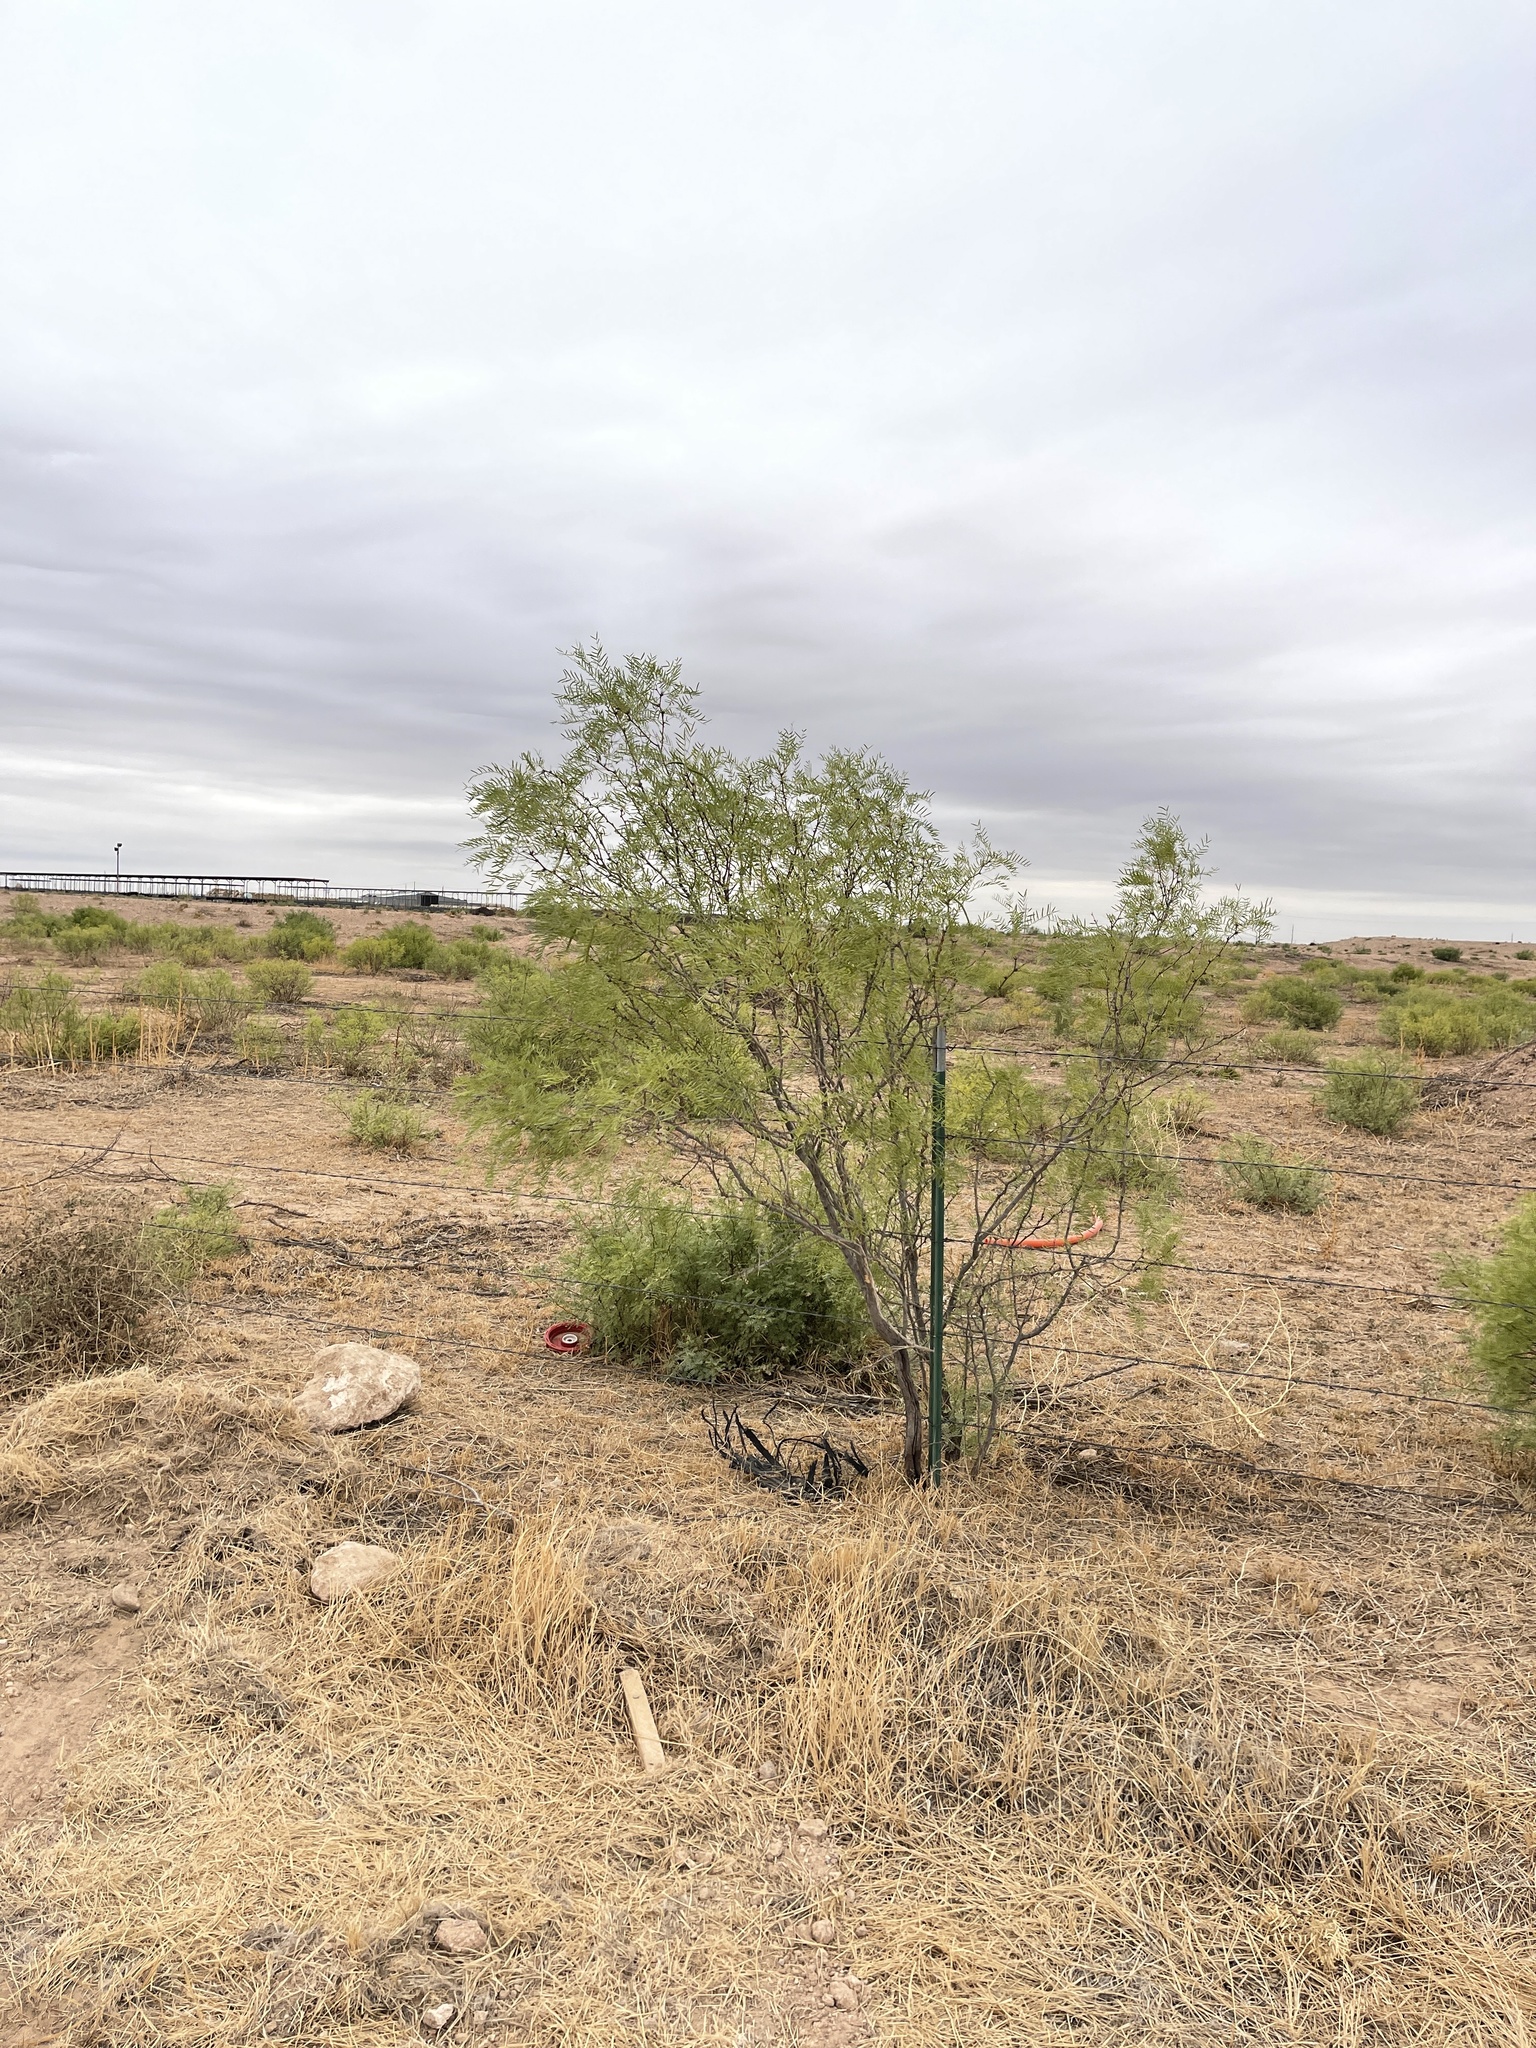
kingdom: Plantae
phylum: Tracheophyta
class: Magnoliopsida
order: Fabales
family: Fabaceae
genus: Prosopis
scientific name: Prosopis glandulosa
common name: Honey mesquite
